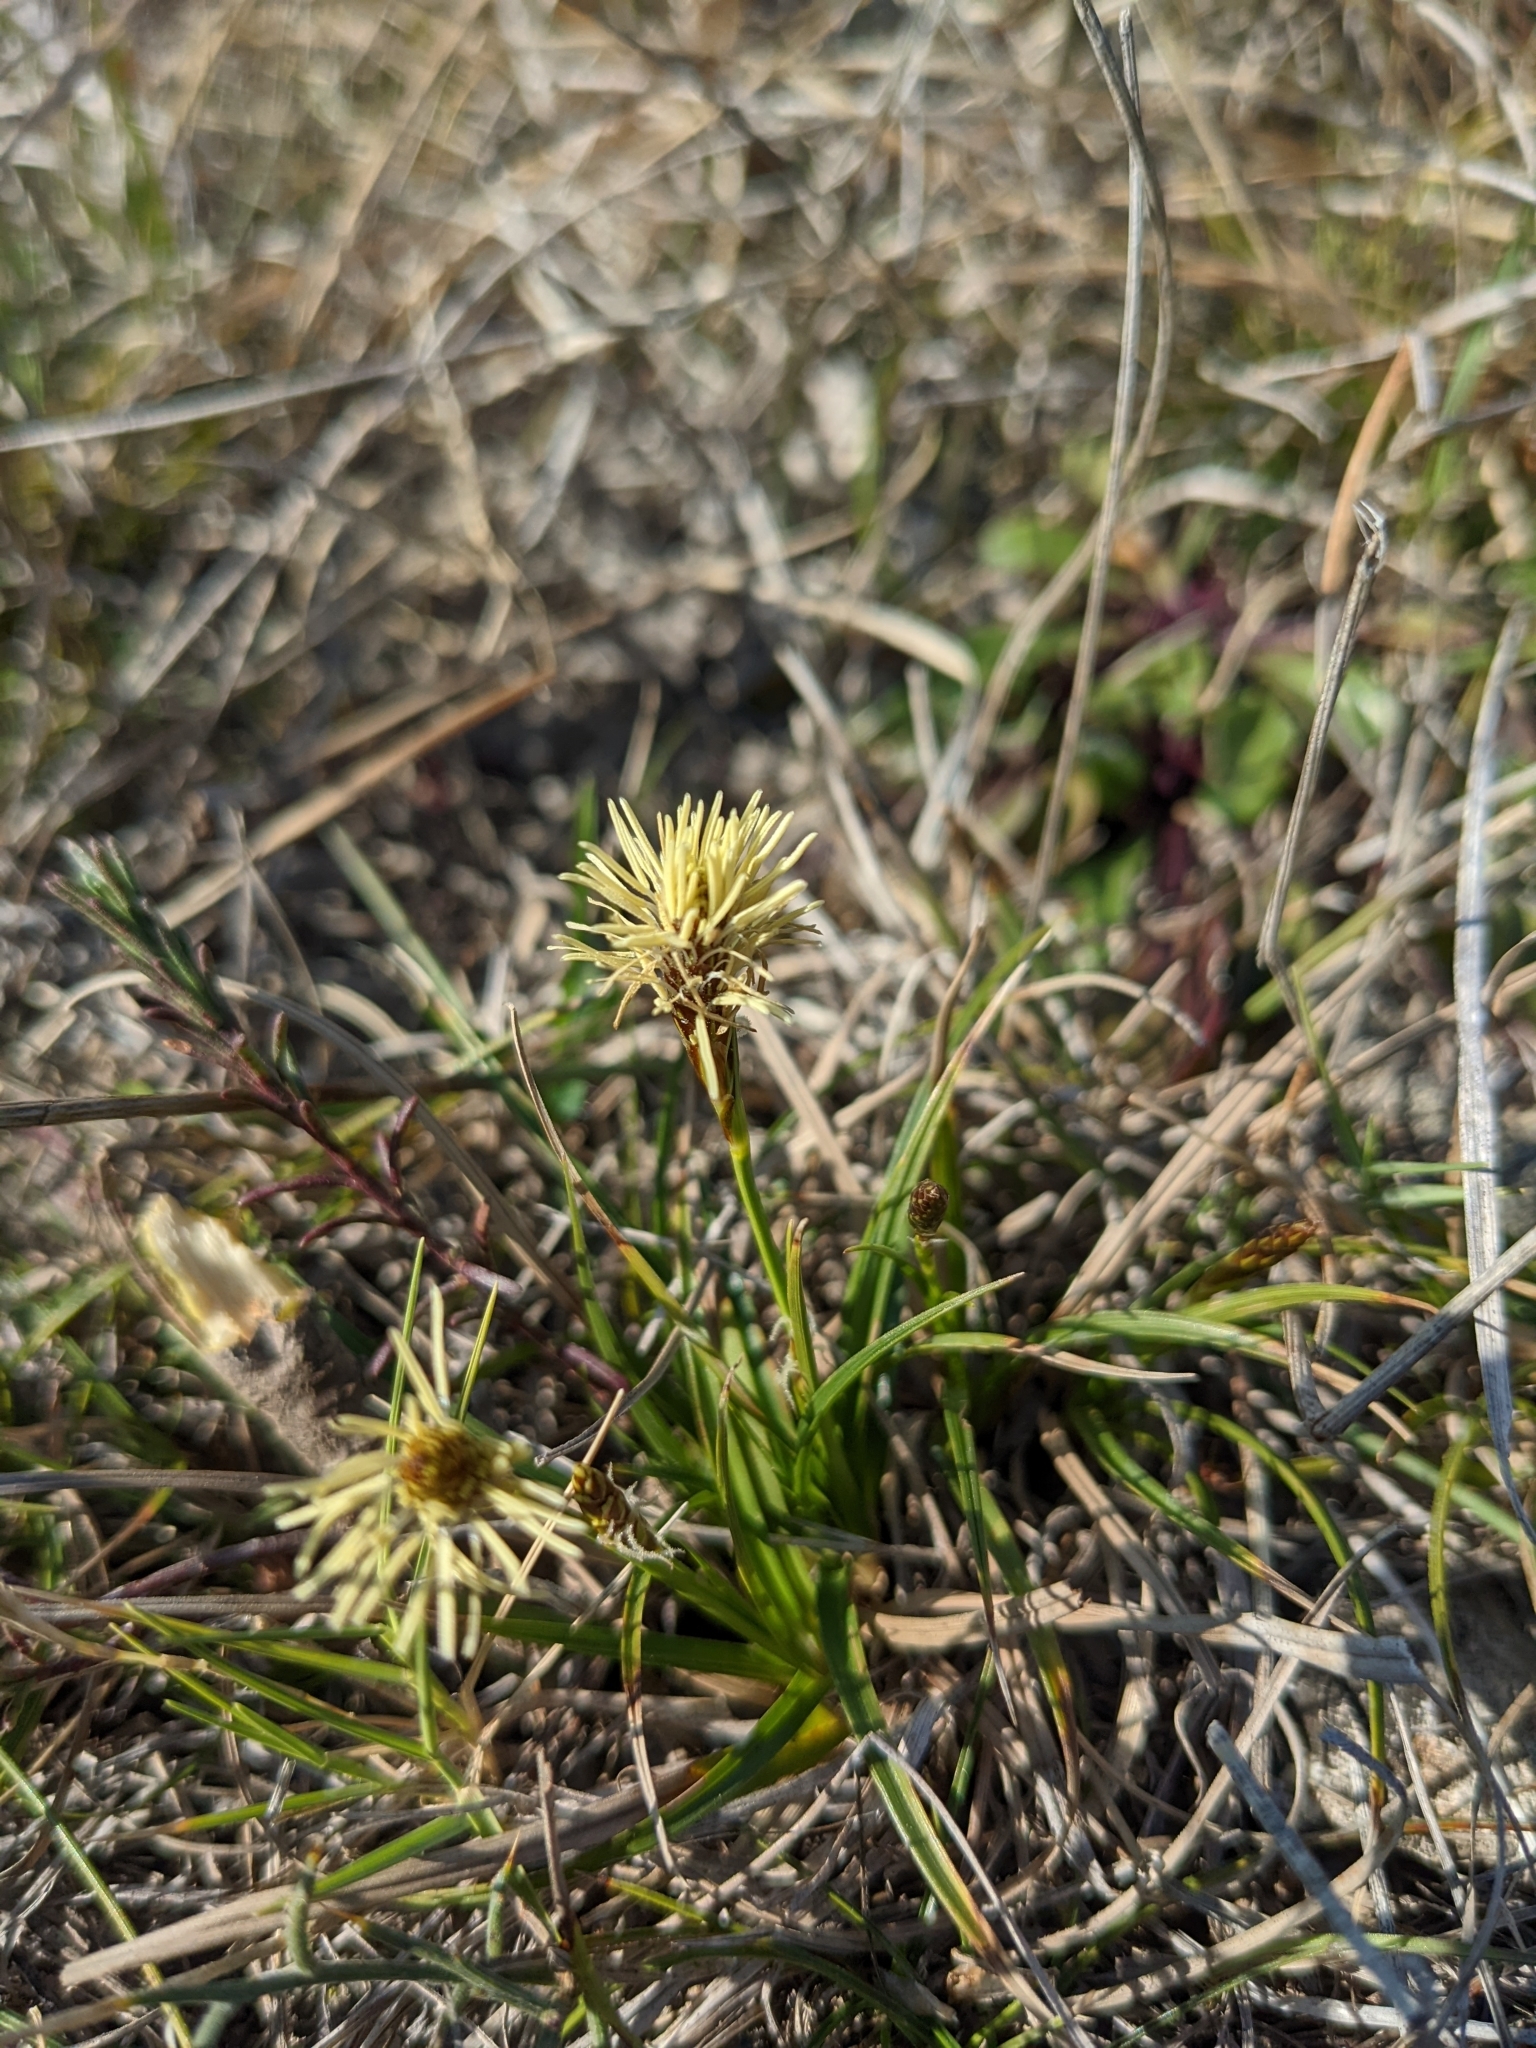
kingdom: Plantae
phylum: Tracheophyta
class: Liliopsida
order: Poales
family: Cyperaceae
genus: Carex
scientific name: Carex halleriana
